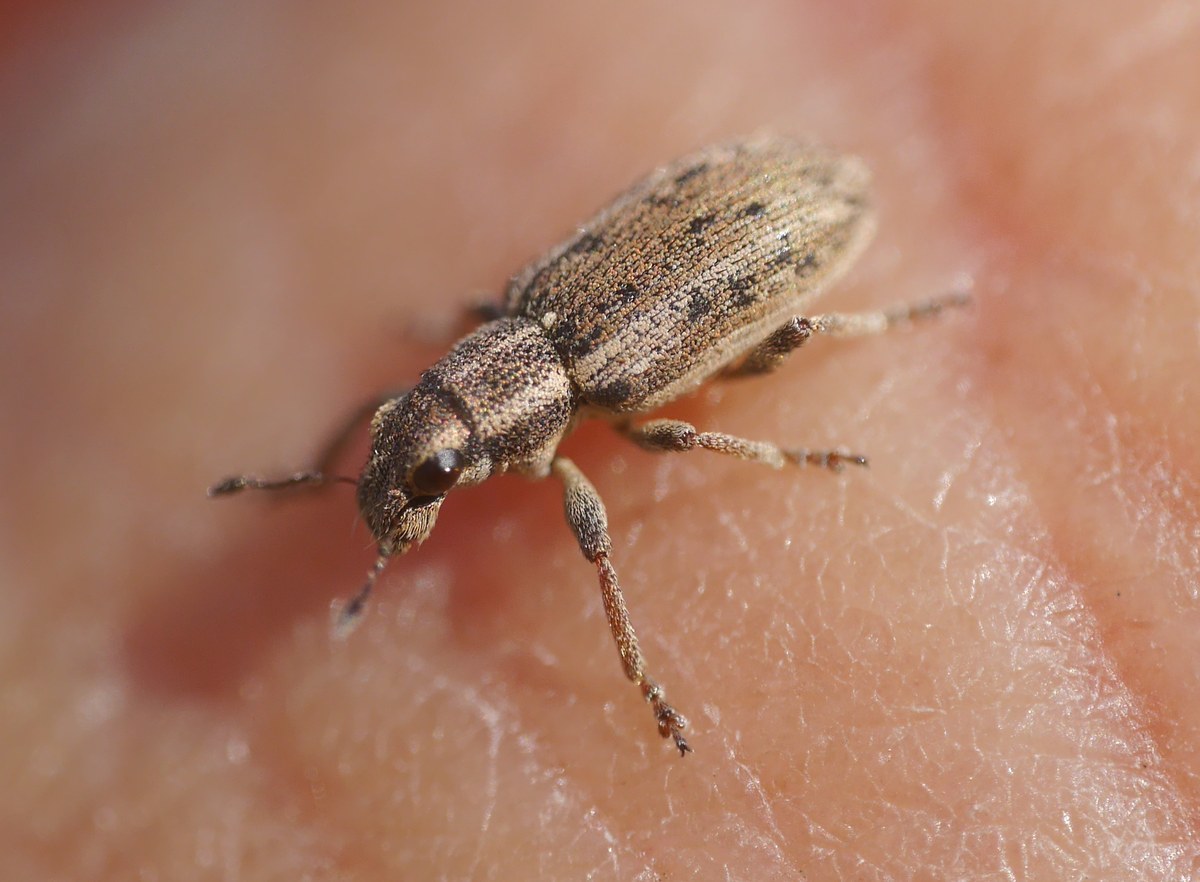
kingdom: Animalia
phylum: Arthropoda
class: Insecta
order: Coleoptera
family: Curculionidae
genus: Sitona
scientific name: Sitona macularius
